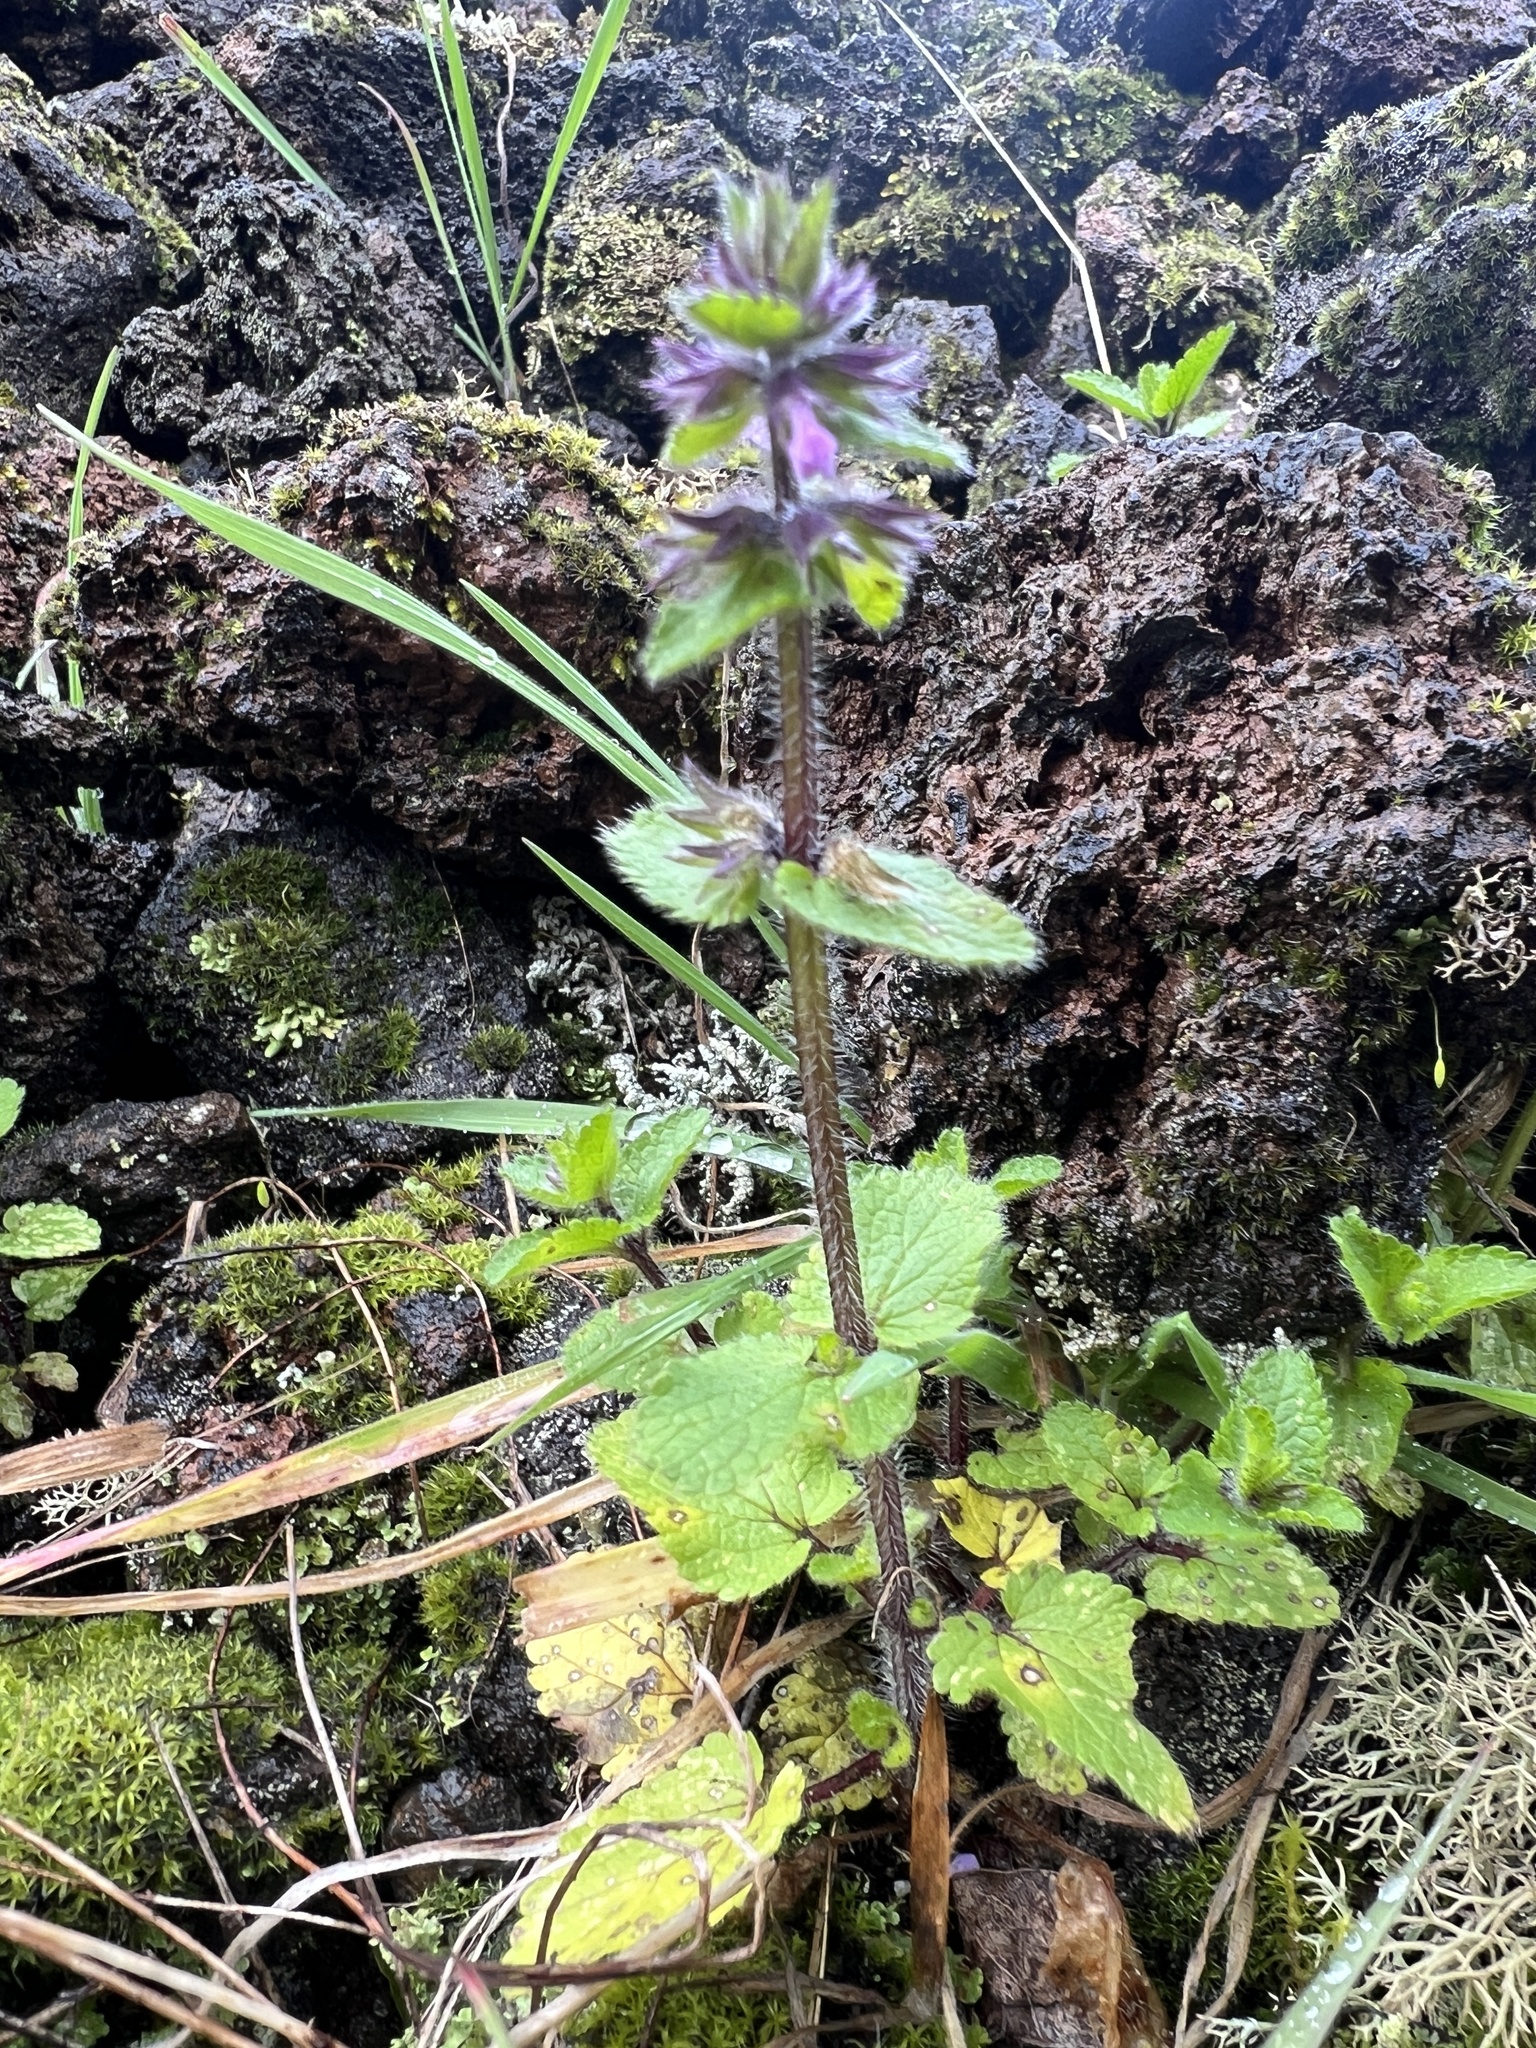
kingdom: Plantae
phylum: Tracheophyta
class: Magnoliopsida
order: Lamiales
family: Lamiaceae
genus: Stachys
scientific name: Stachys arvensis
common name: Field woundwort
